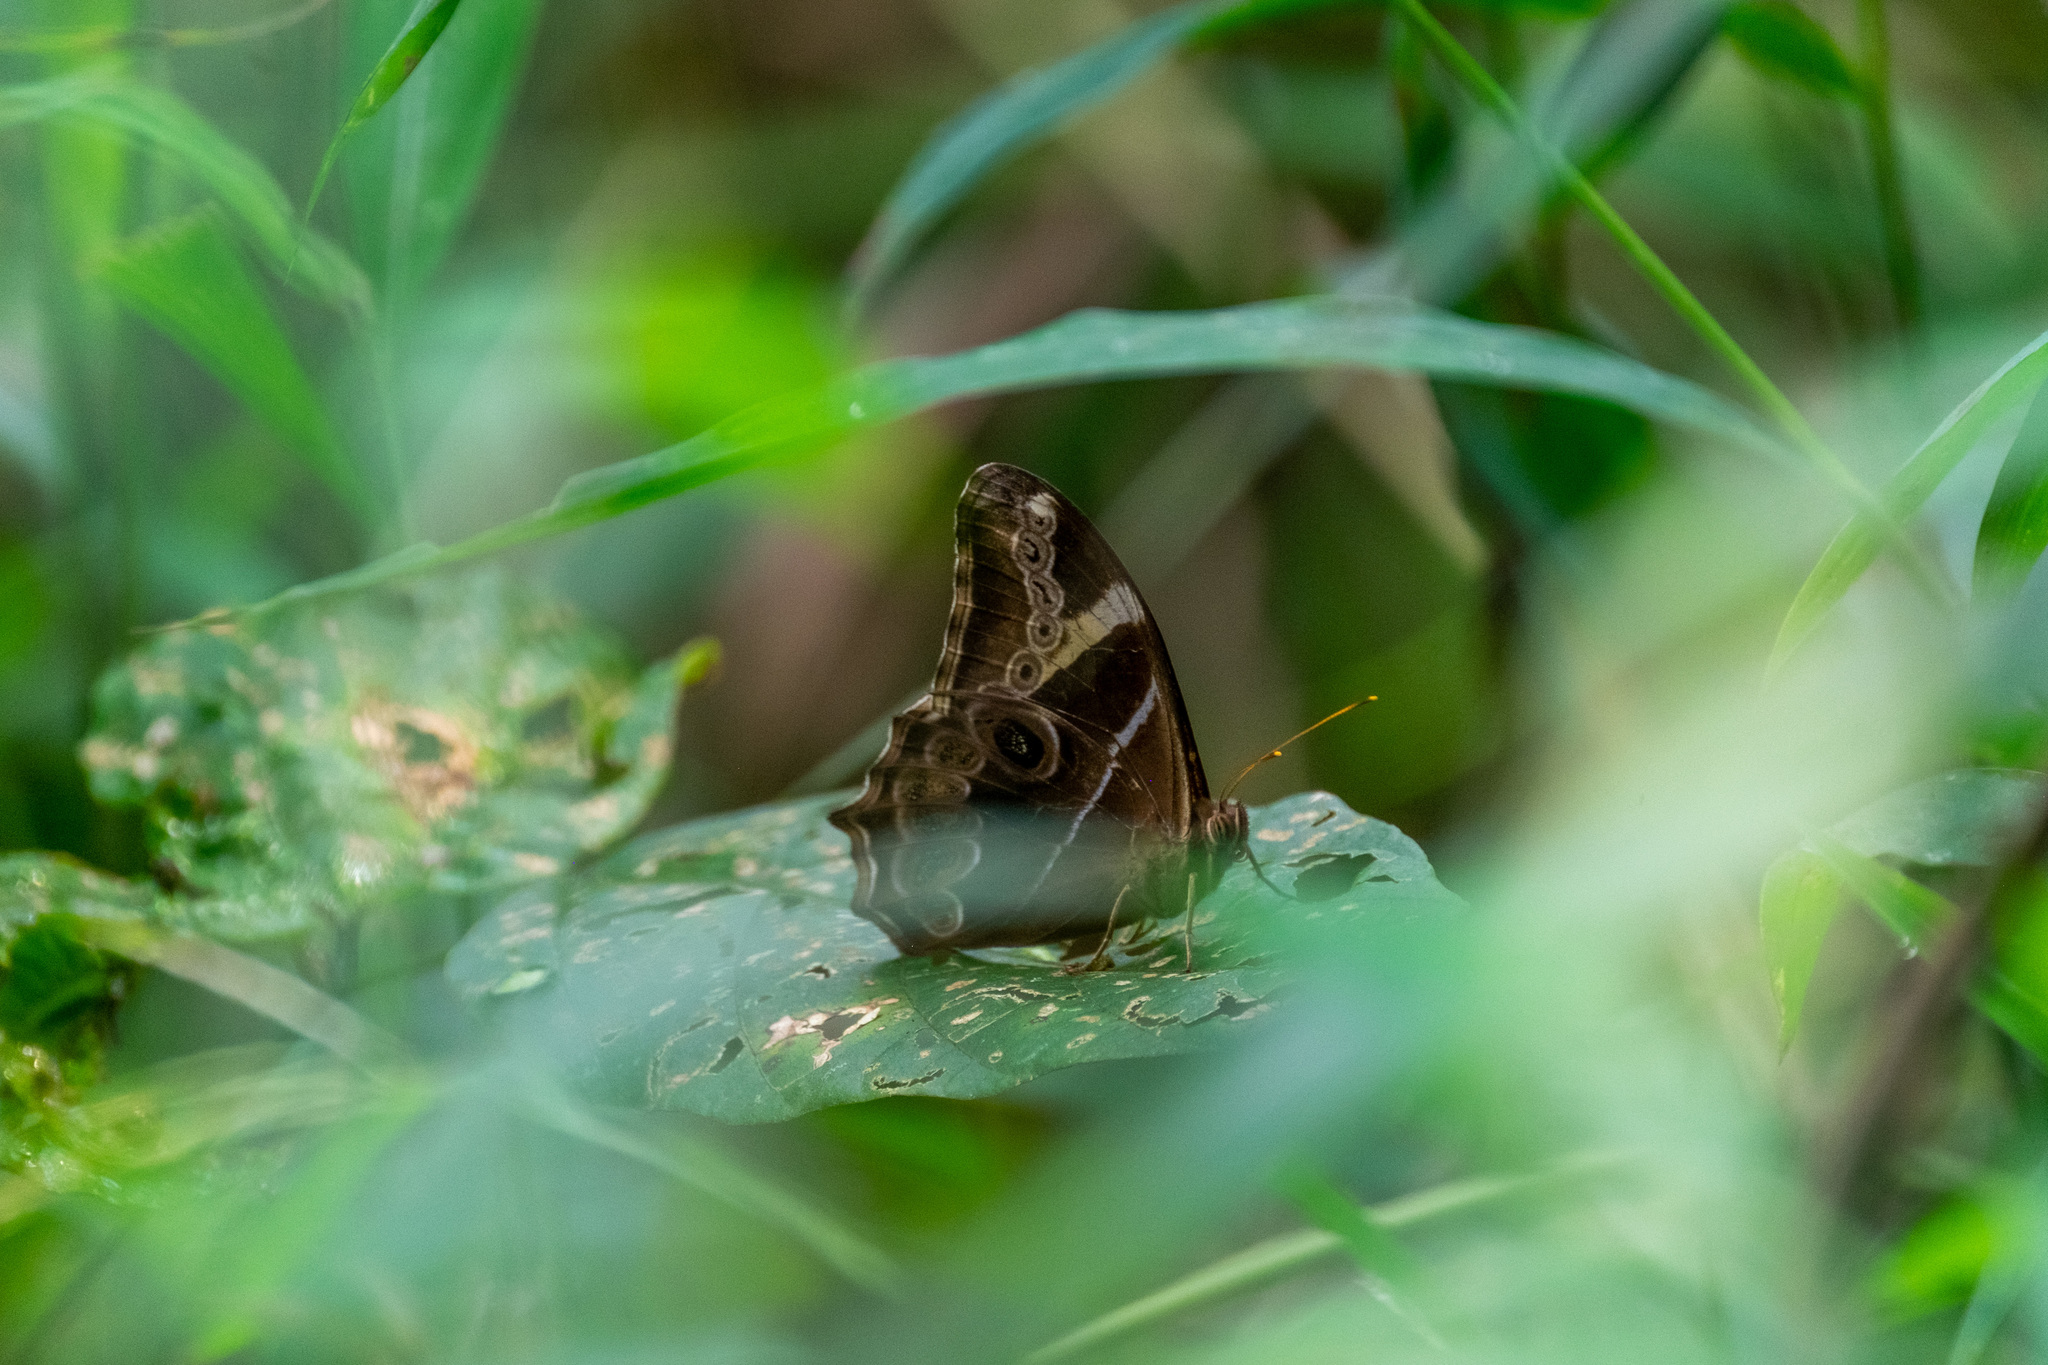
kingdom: Animalia
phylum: Arthropoda
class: Insecta
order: Lepidoptera
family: Nymphalidae
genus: Lethe
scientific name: Lethe europa
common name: Bamboo treebrown
